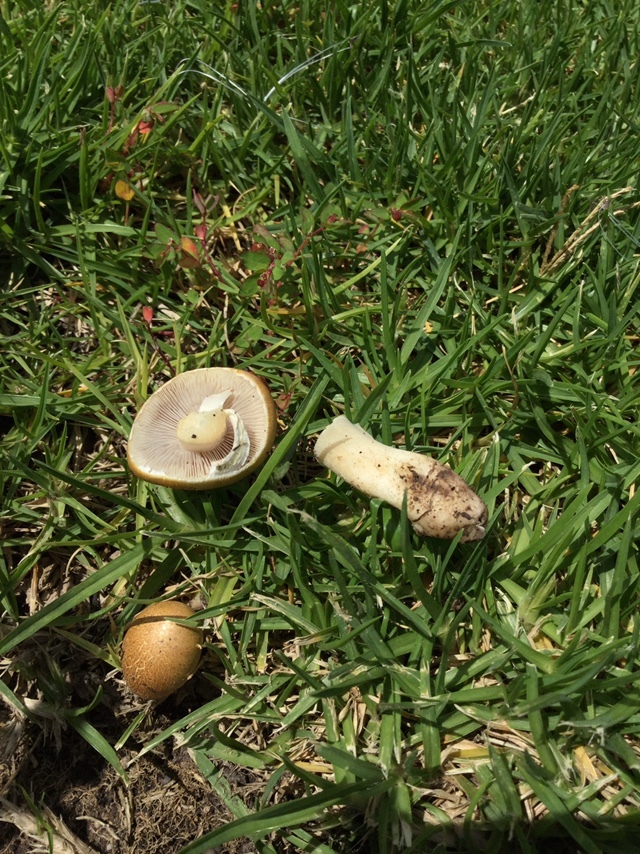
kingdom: Fungi
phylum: Basidiomycota
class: Agaricomycetes
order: Agaricales
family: Hymenogastraceae
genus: Psilocybe
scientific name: Psilocybe coronilla
